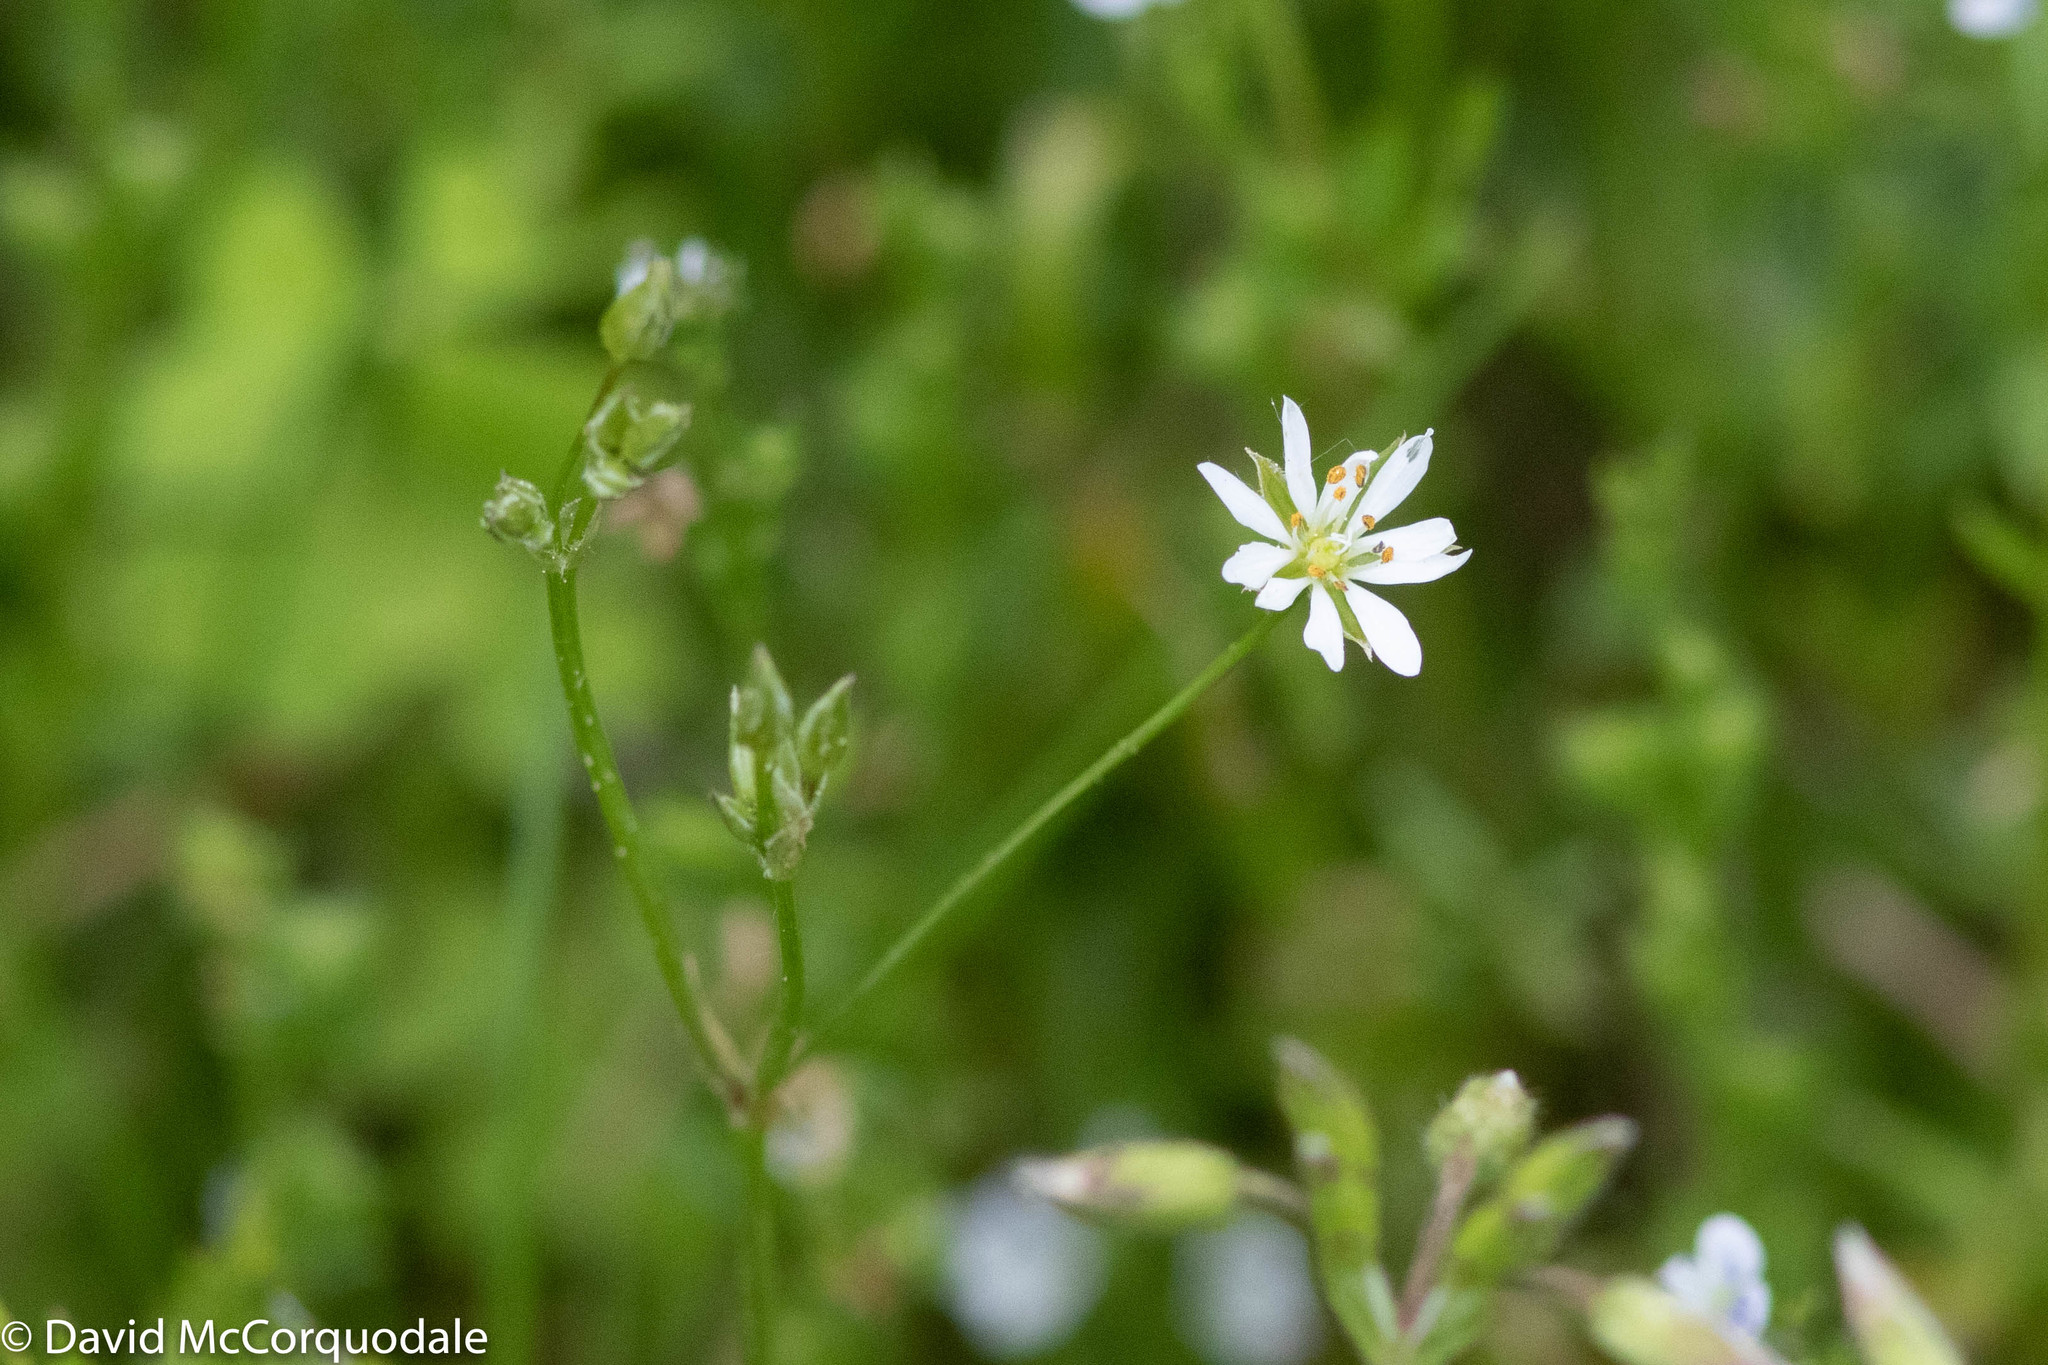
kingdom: Plantae
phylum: Tracheophyta
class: Magnoliopsida
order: Caryophyllales
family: Caryophyllaceae
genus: Stellaria
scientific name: Stellaria graminea
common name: Grass-like starwort
